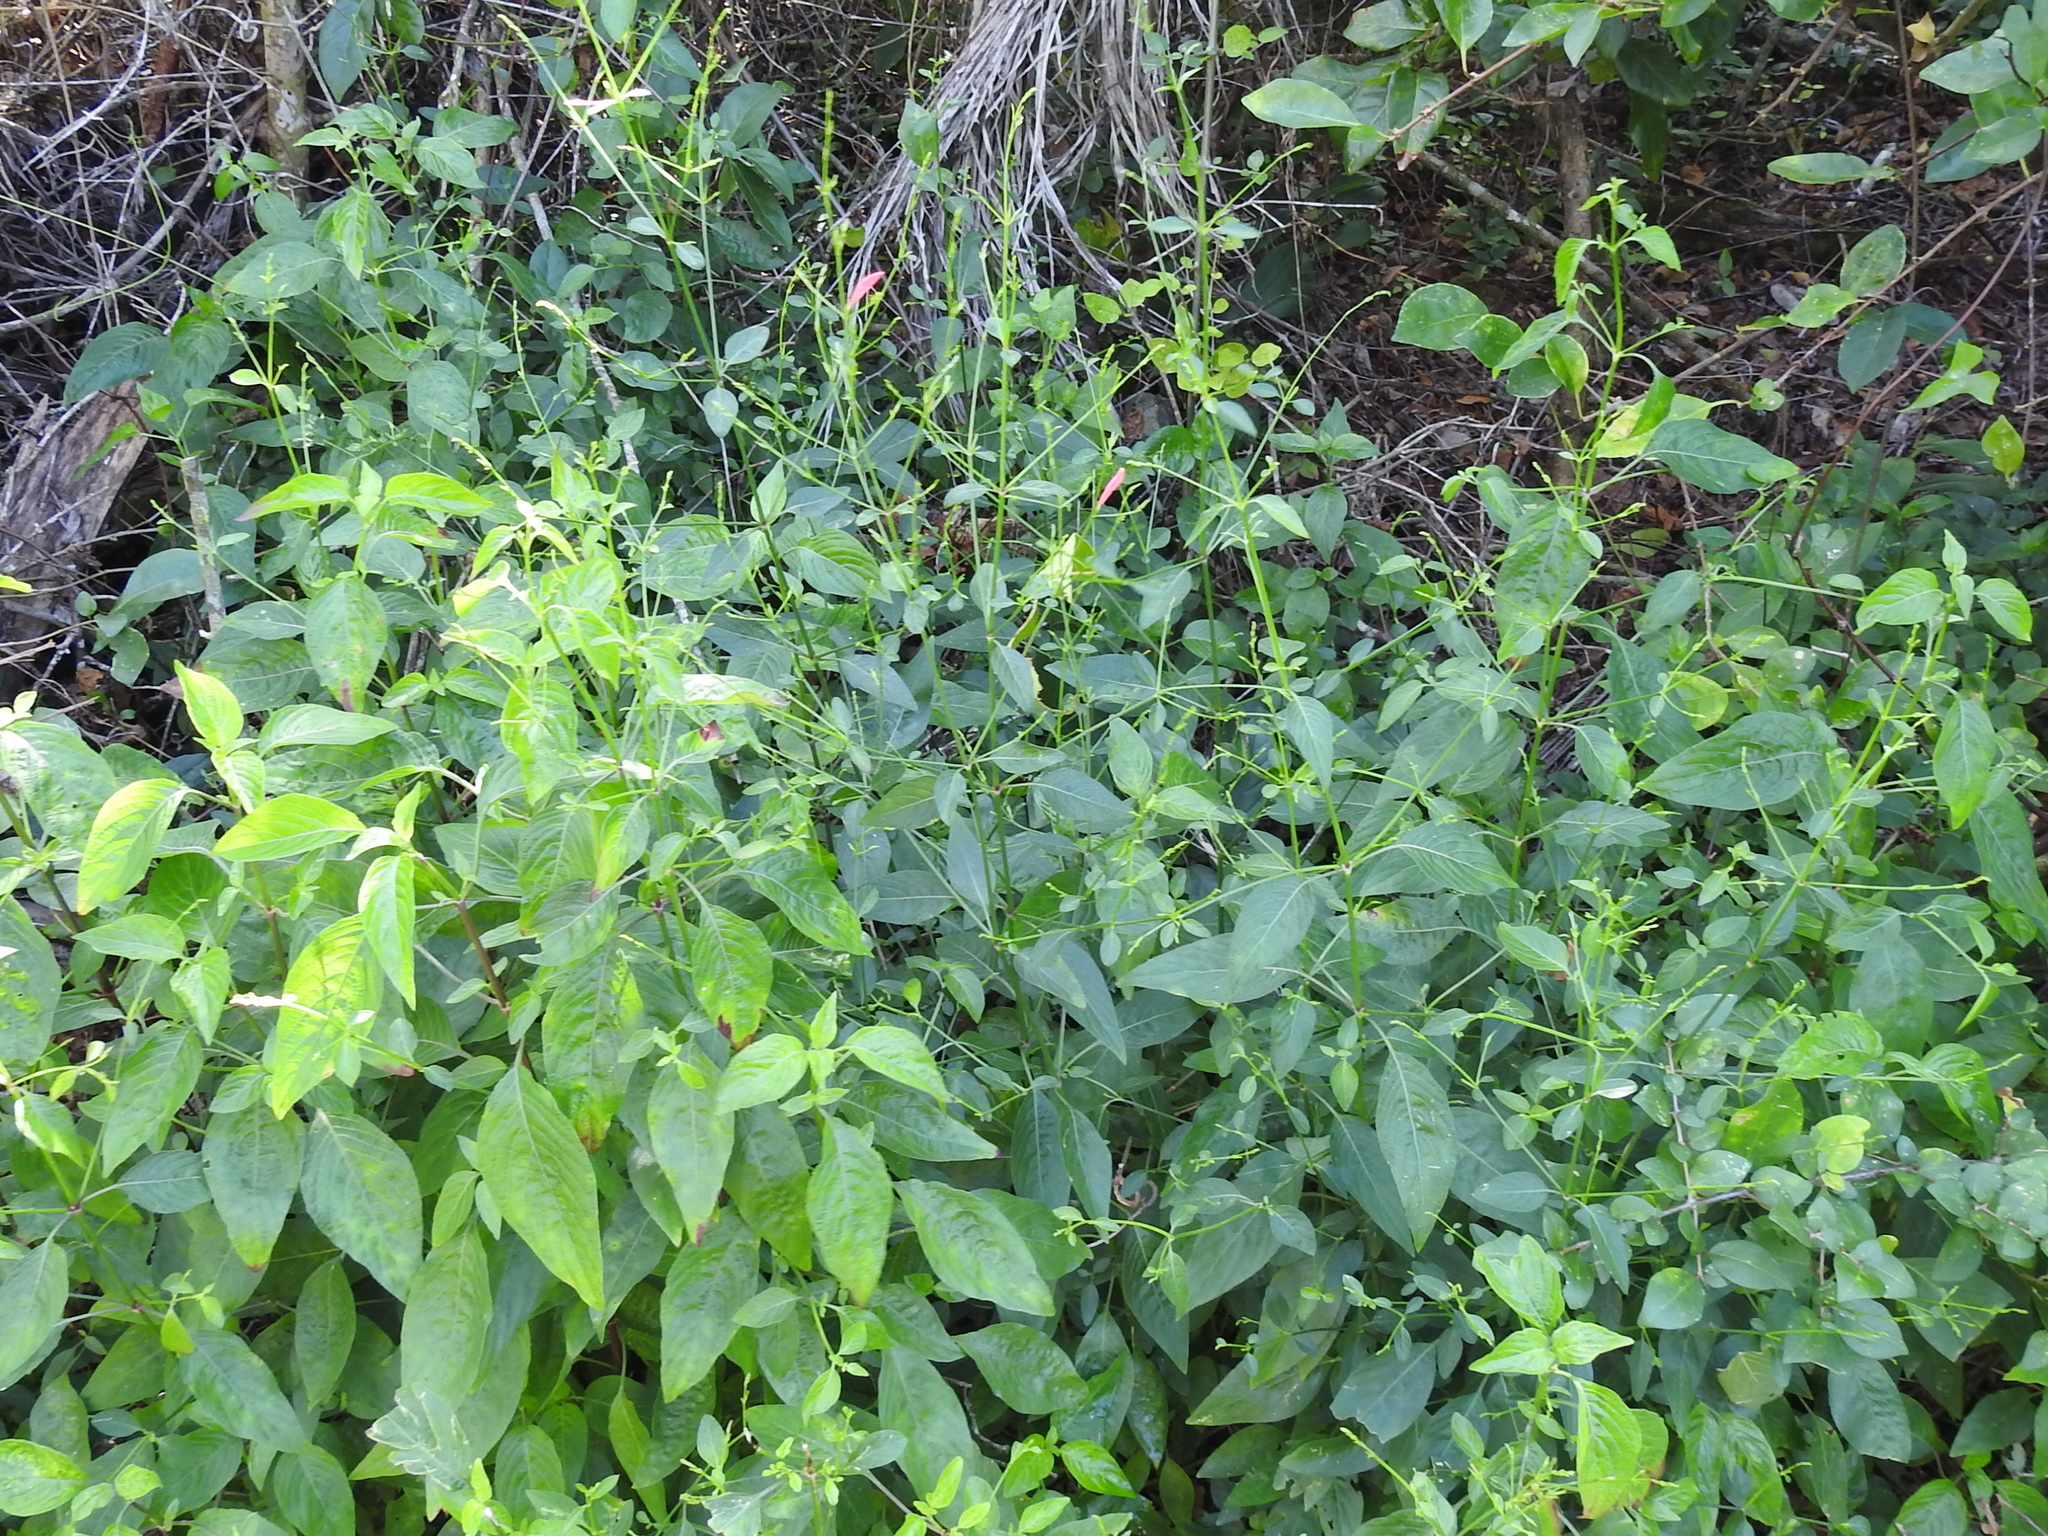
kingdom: Plantae
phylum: Tracheophyta
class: Magnoliopsida
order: Lamiales
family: Acanthaceae
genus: Dicliptera
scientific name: Dicliptera sexangularis
